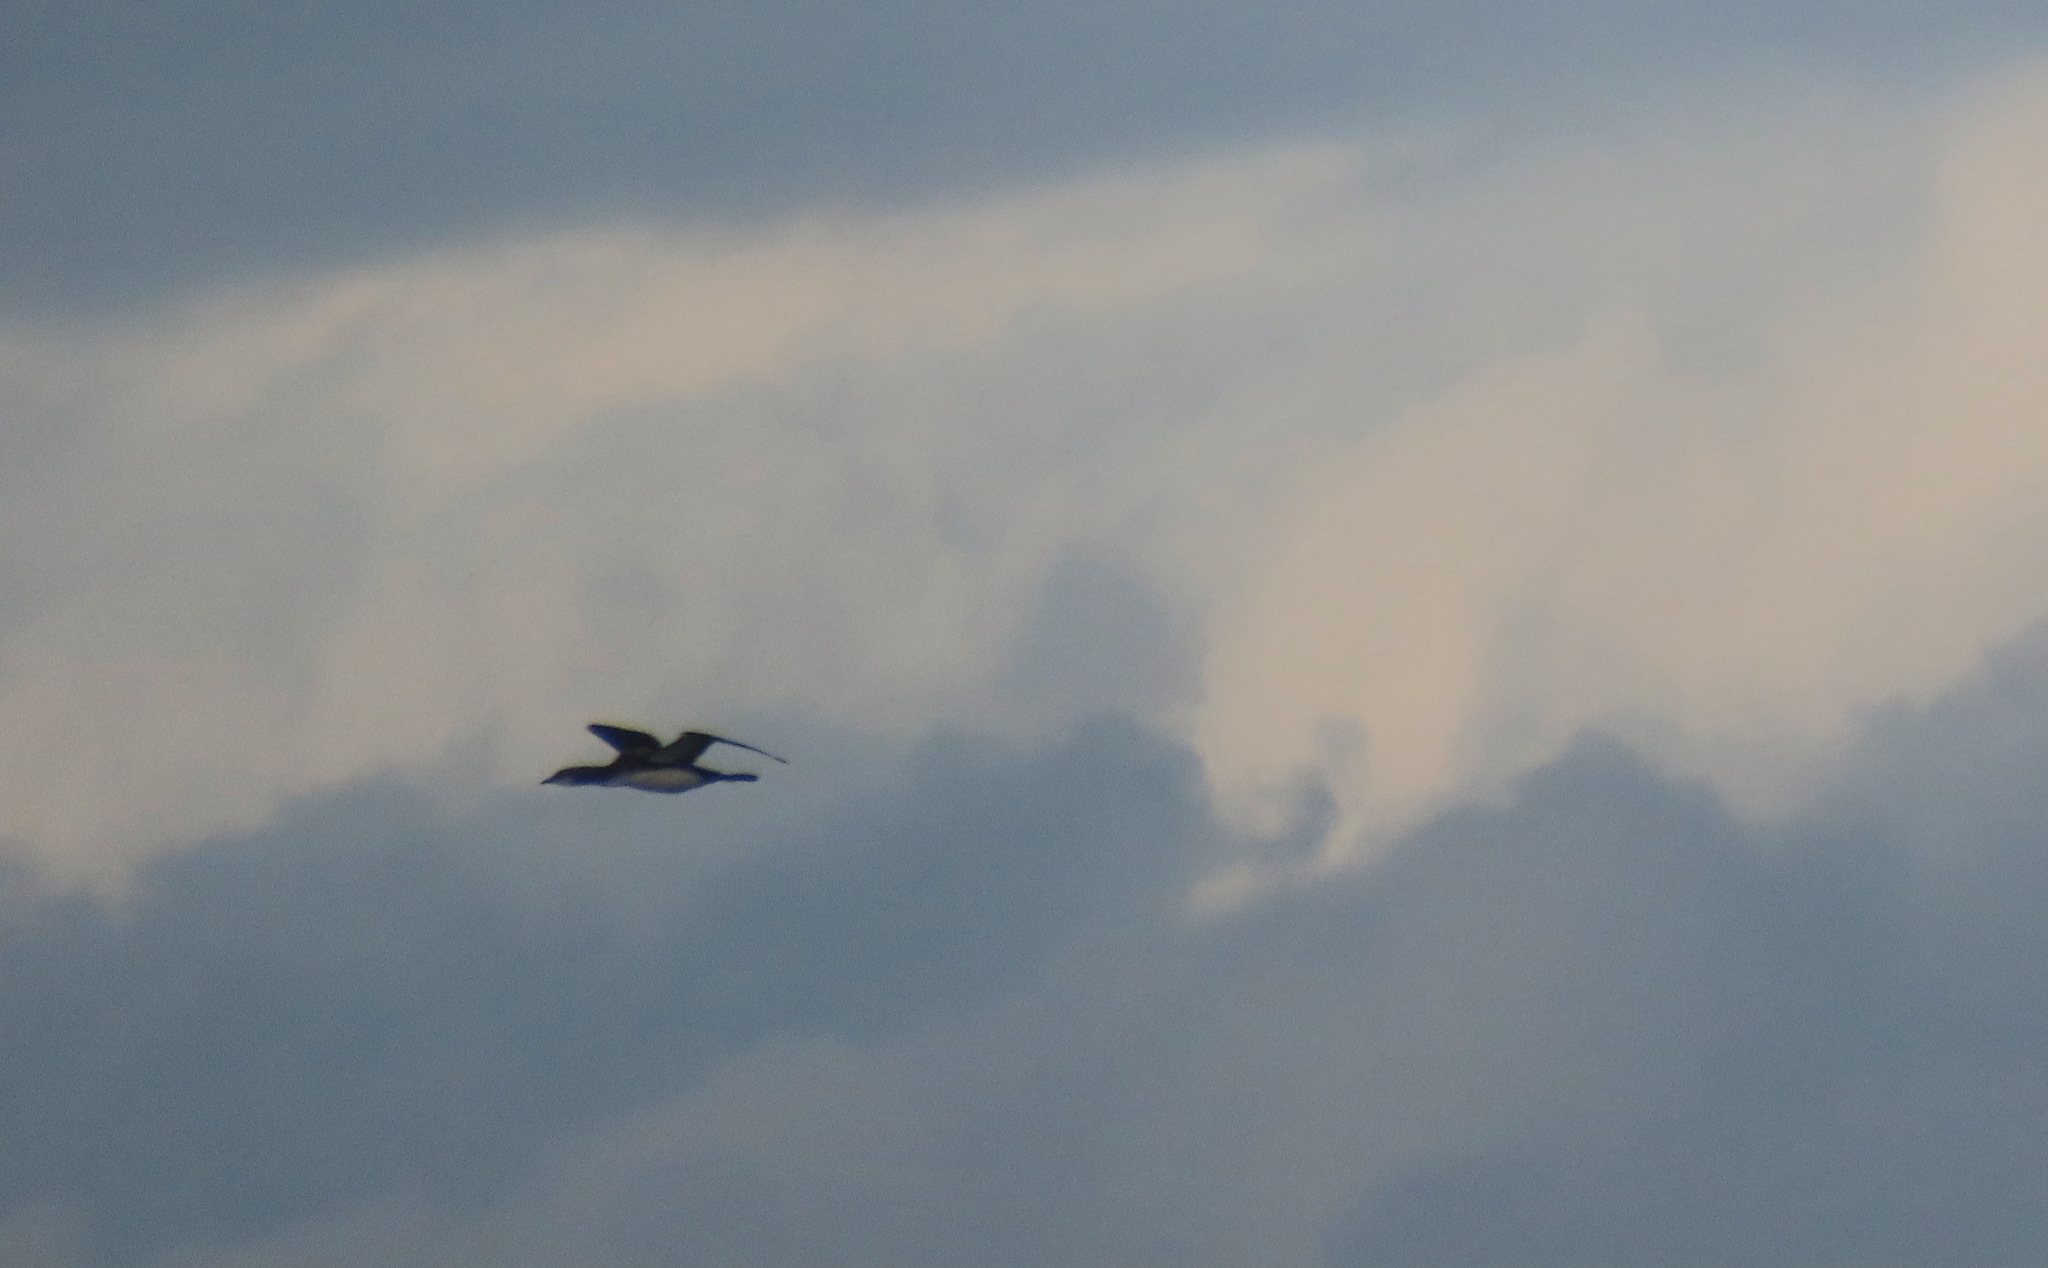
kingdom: Animalia
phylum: Chordata
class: Aves
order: Gaviiformes
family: Gaviidae
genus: Gavia
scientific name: Gavia pacifica
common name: Pacific loon
